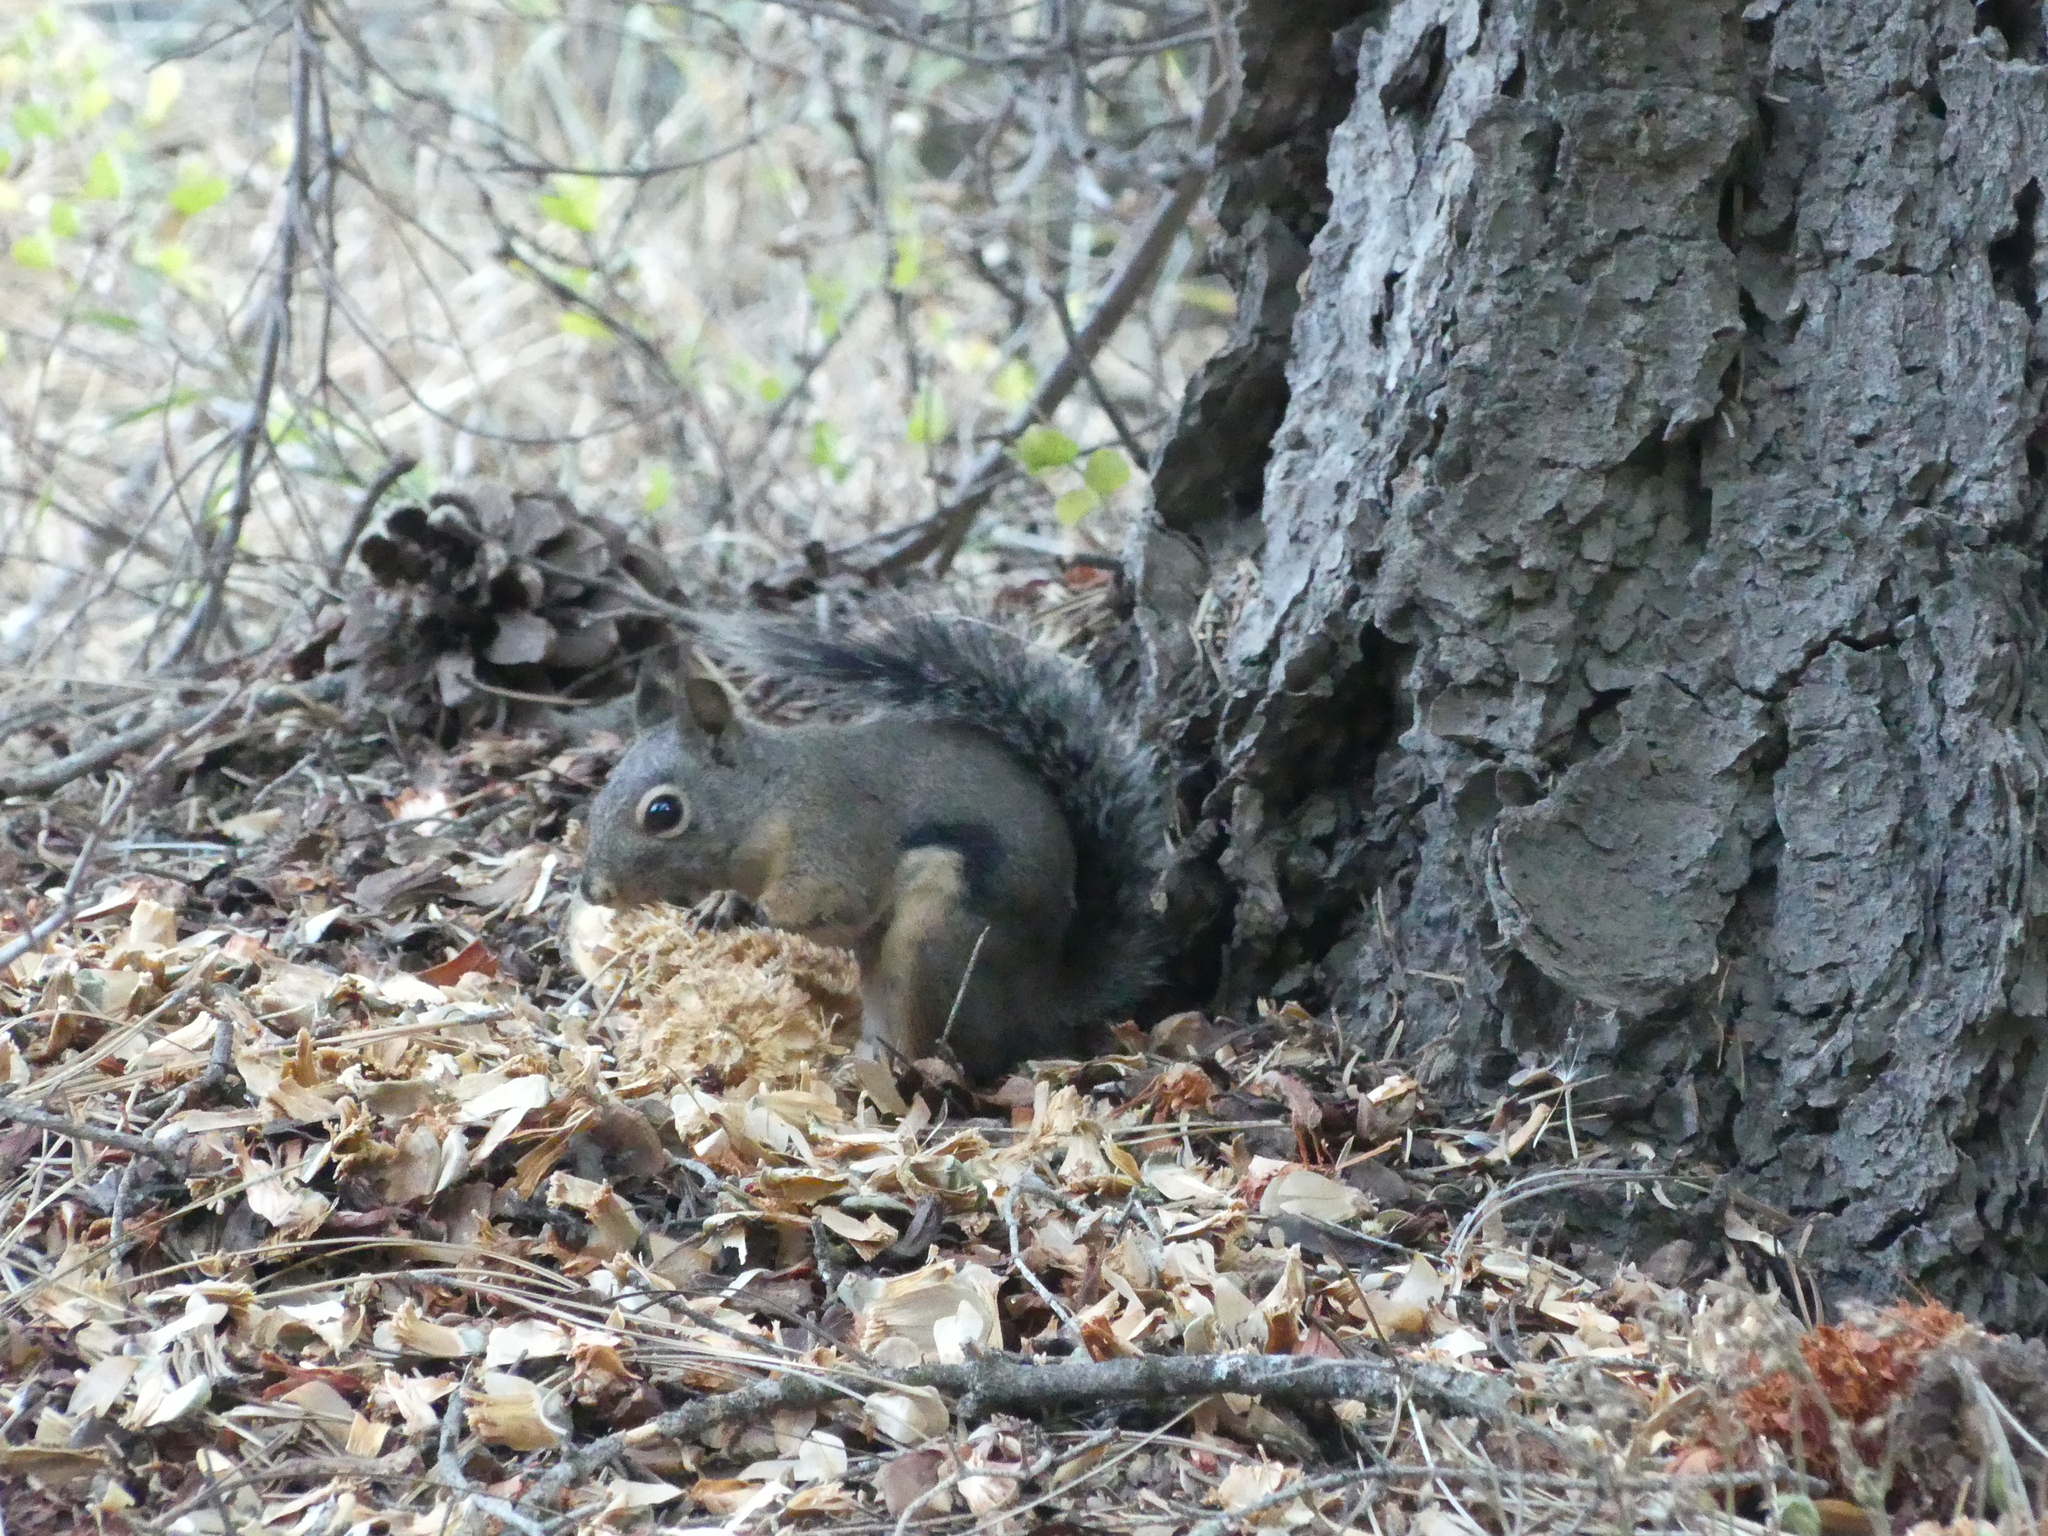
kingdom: Animalia
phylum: Chordata
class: Mammalia
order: Rodentia
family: Sciuridae
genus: Tamiasciurus
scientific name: Tamiasciurus douglasii
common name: Douglas's squirrel
